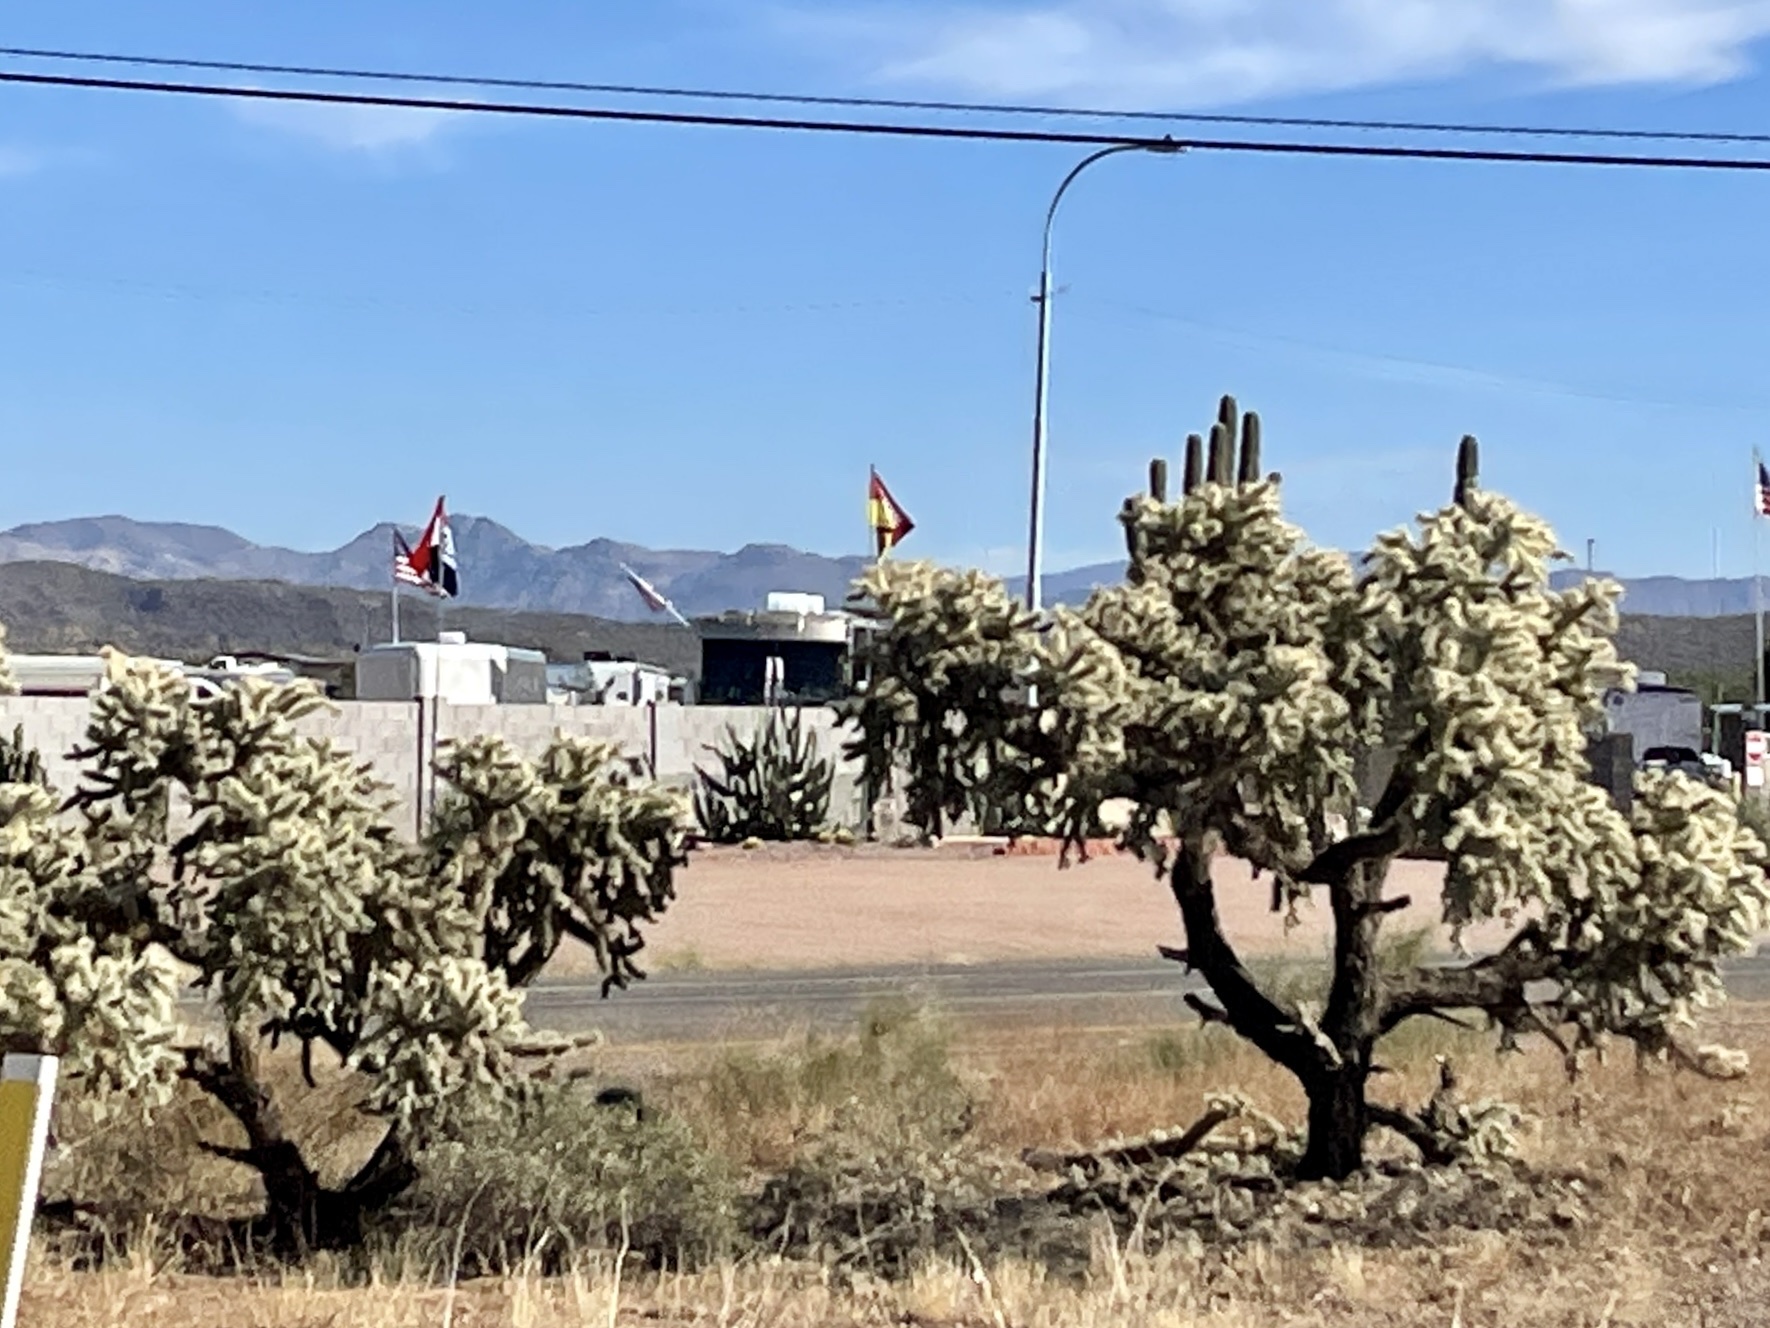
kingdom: Plantae
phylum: Tracheophyta
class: Magnoliopsida
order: Caryophyllales
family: Cactaceae
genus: Cylindropuntia
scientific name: Cylindropuntia fulgida
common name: Jumping cholla
